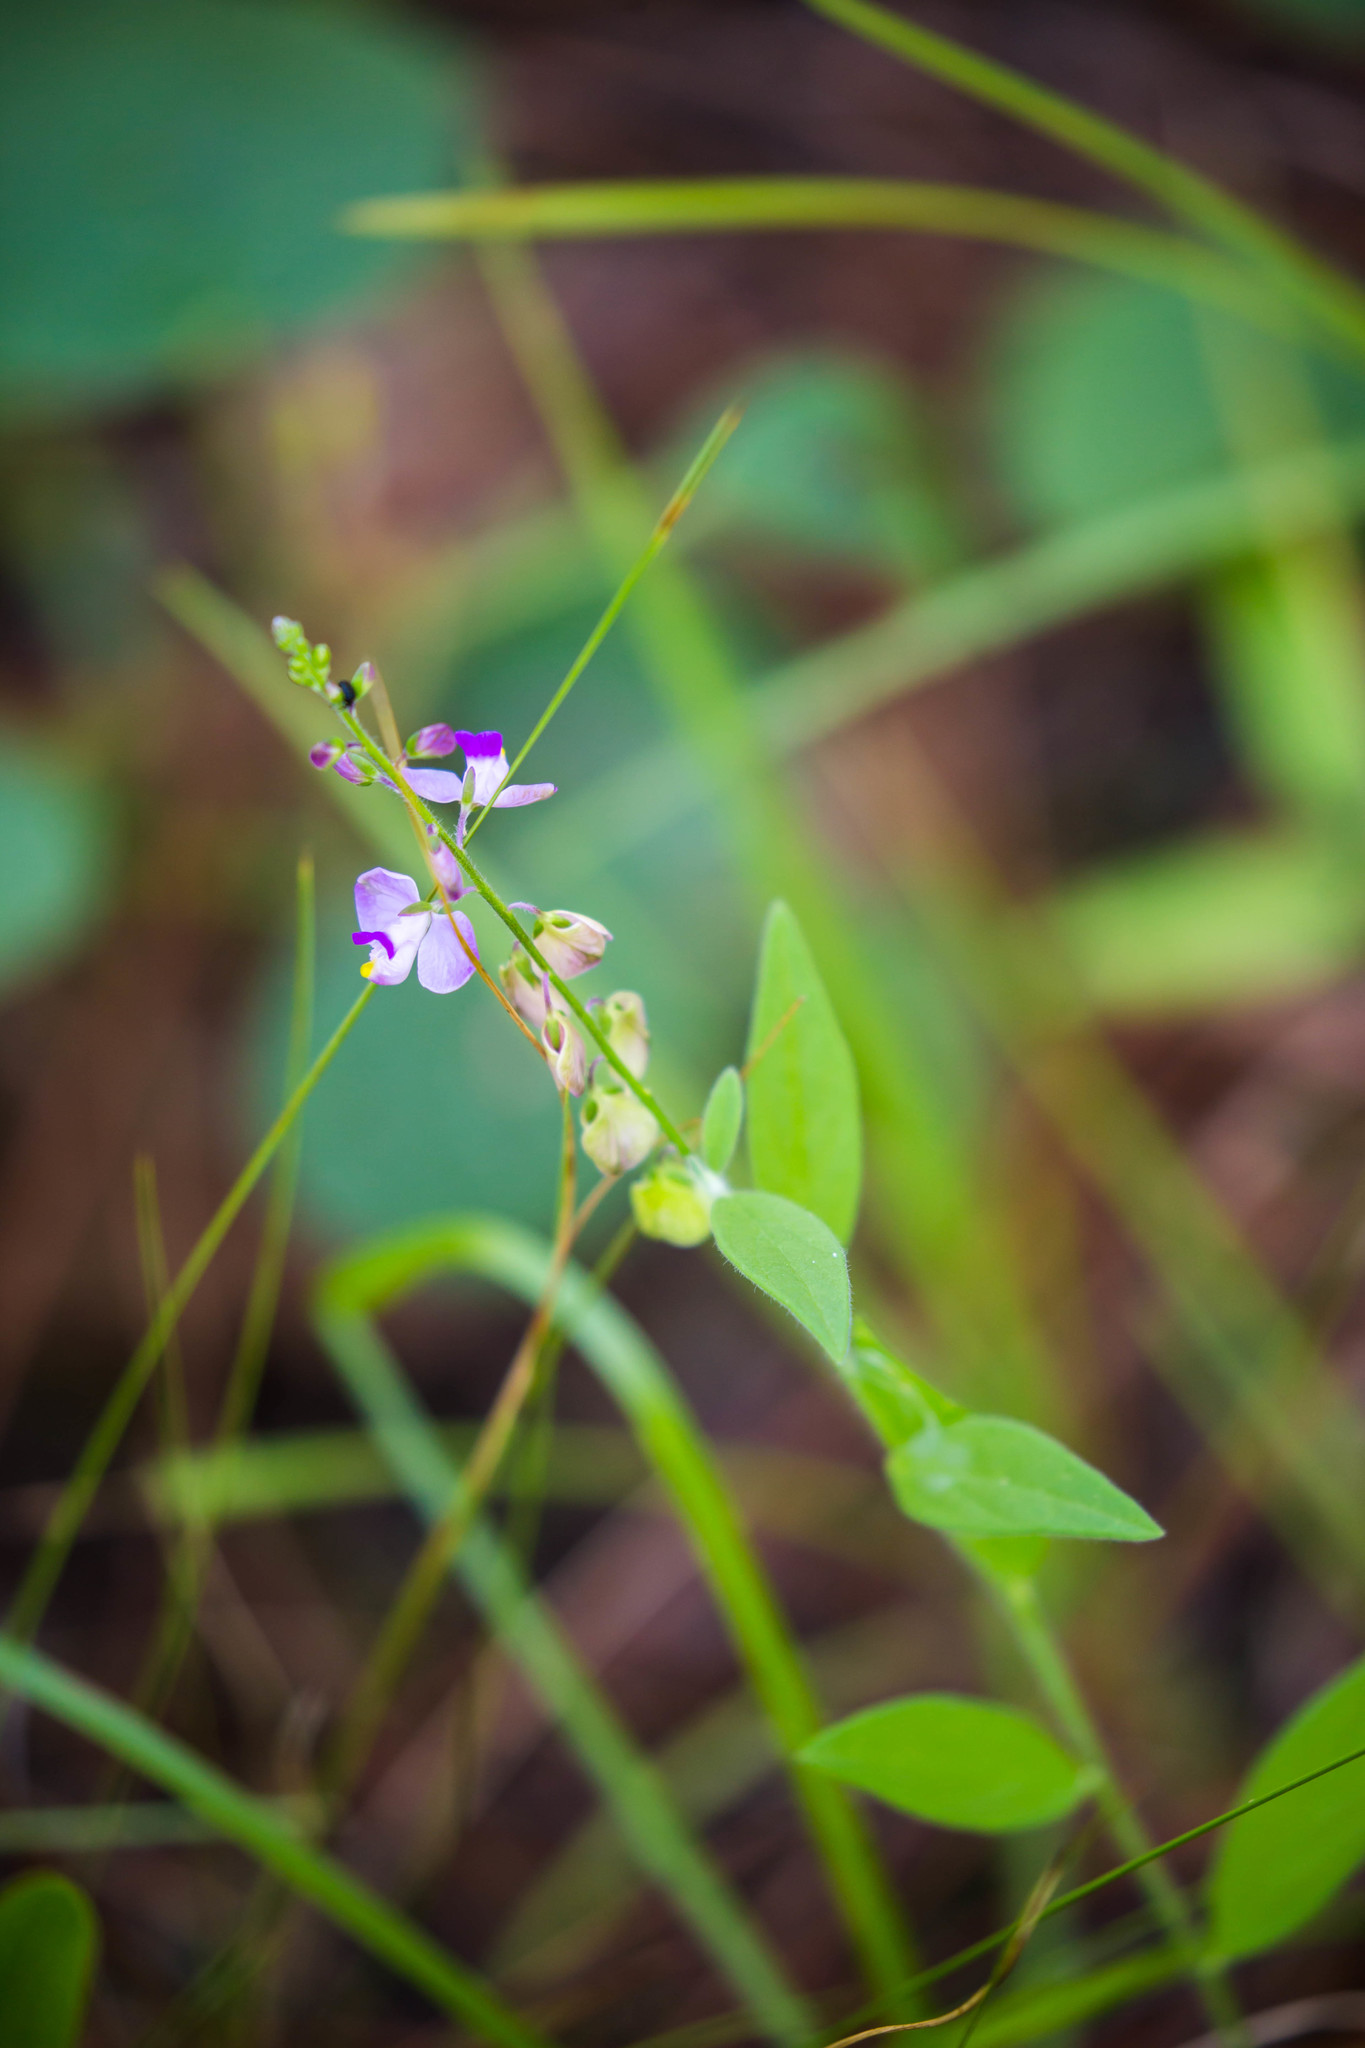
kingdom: Plantae
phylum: Tracheophyta
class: Magnoliopsida
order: Fabales
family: Polygalaceae
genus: Asemeia
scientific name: Asemeia grandiflora
